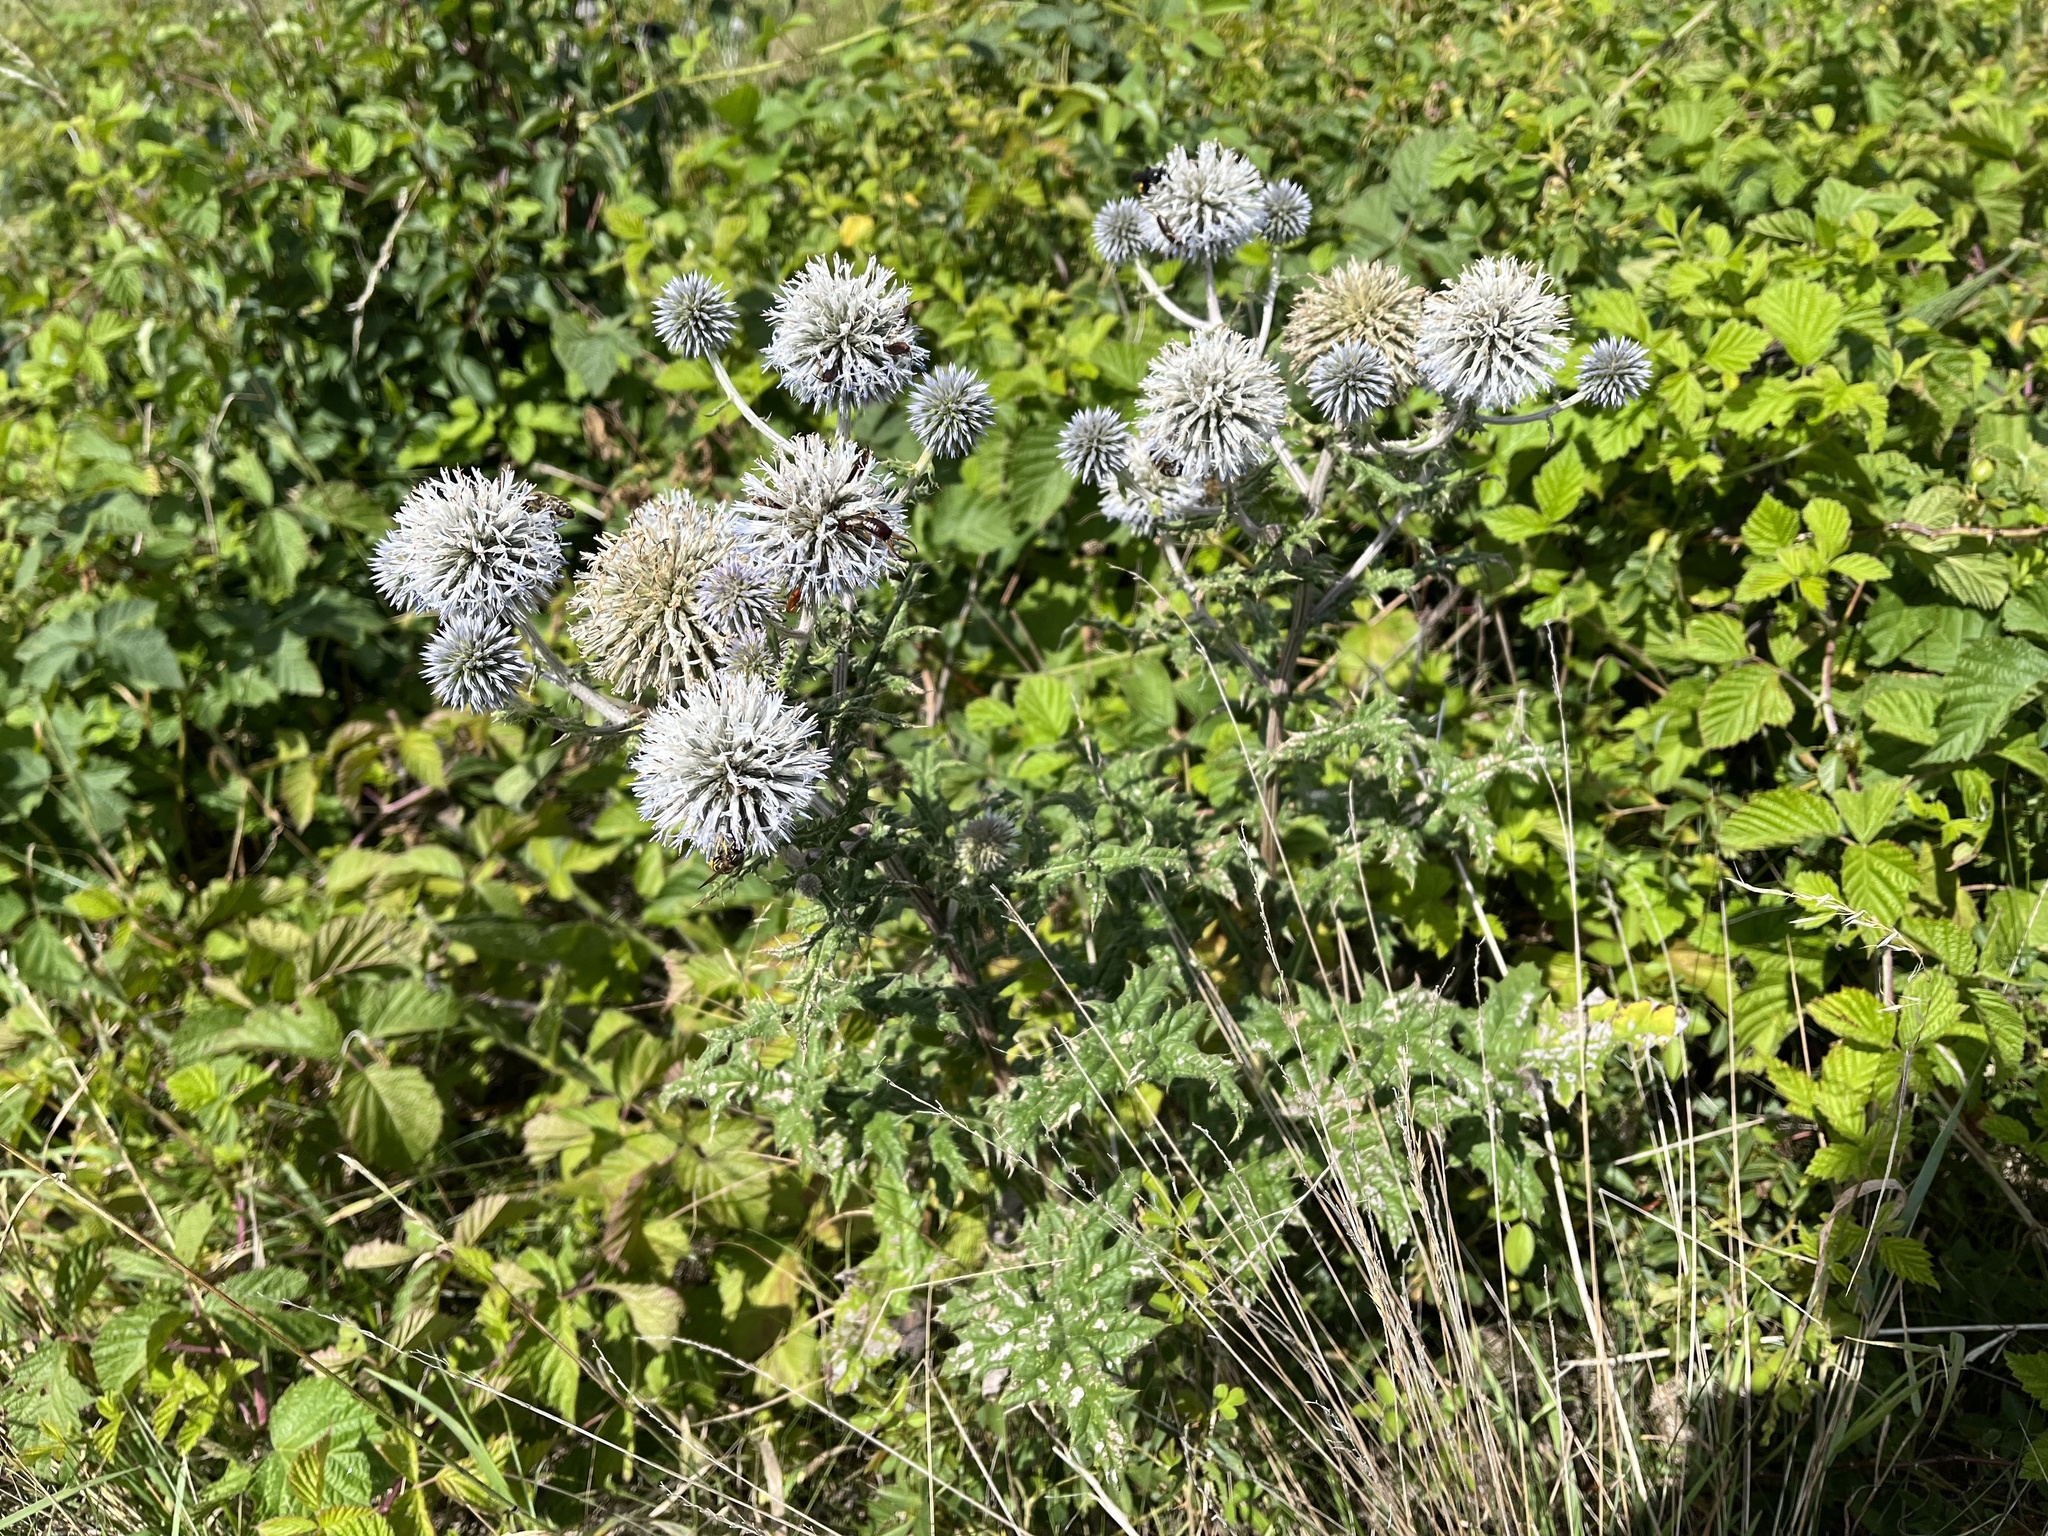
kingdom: Plantae
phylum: Tracheophyta
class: Magnoliopsida
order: Asterales
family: Asteraceae
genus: Echinops
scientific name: Echinops sphaerocephalus
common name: Glandular globe-thistle
